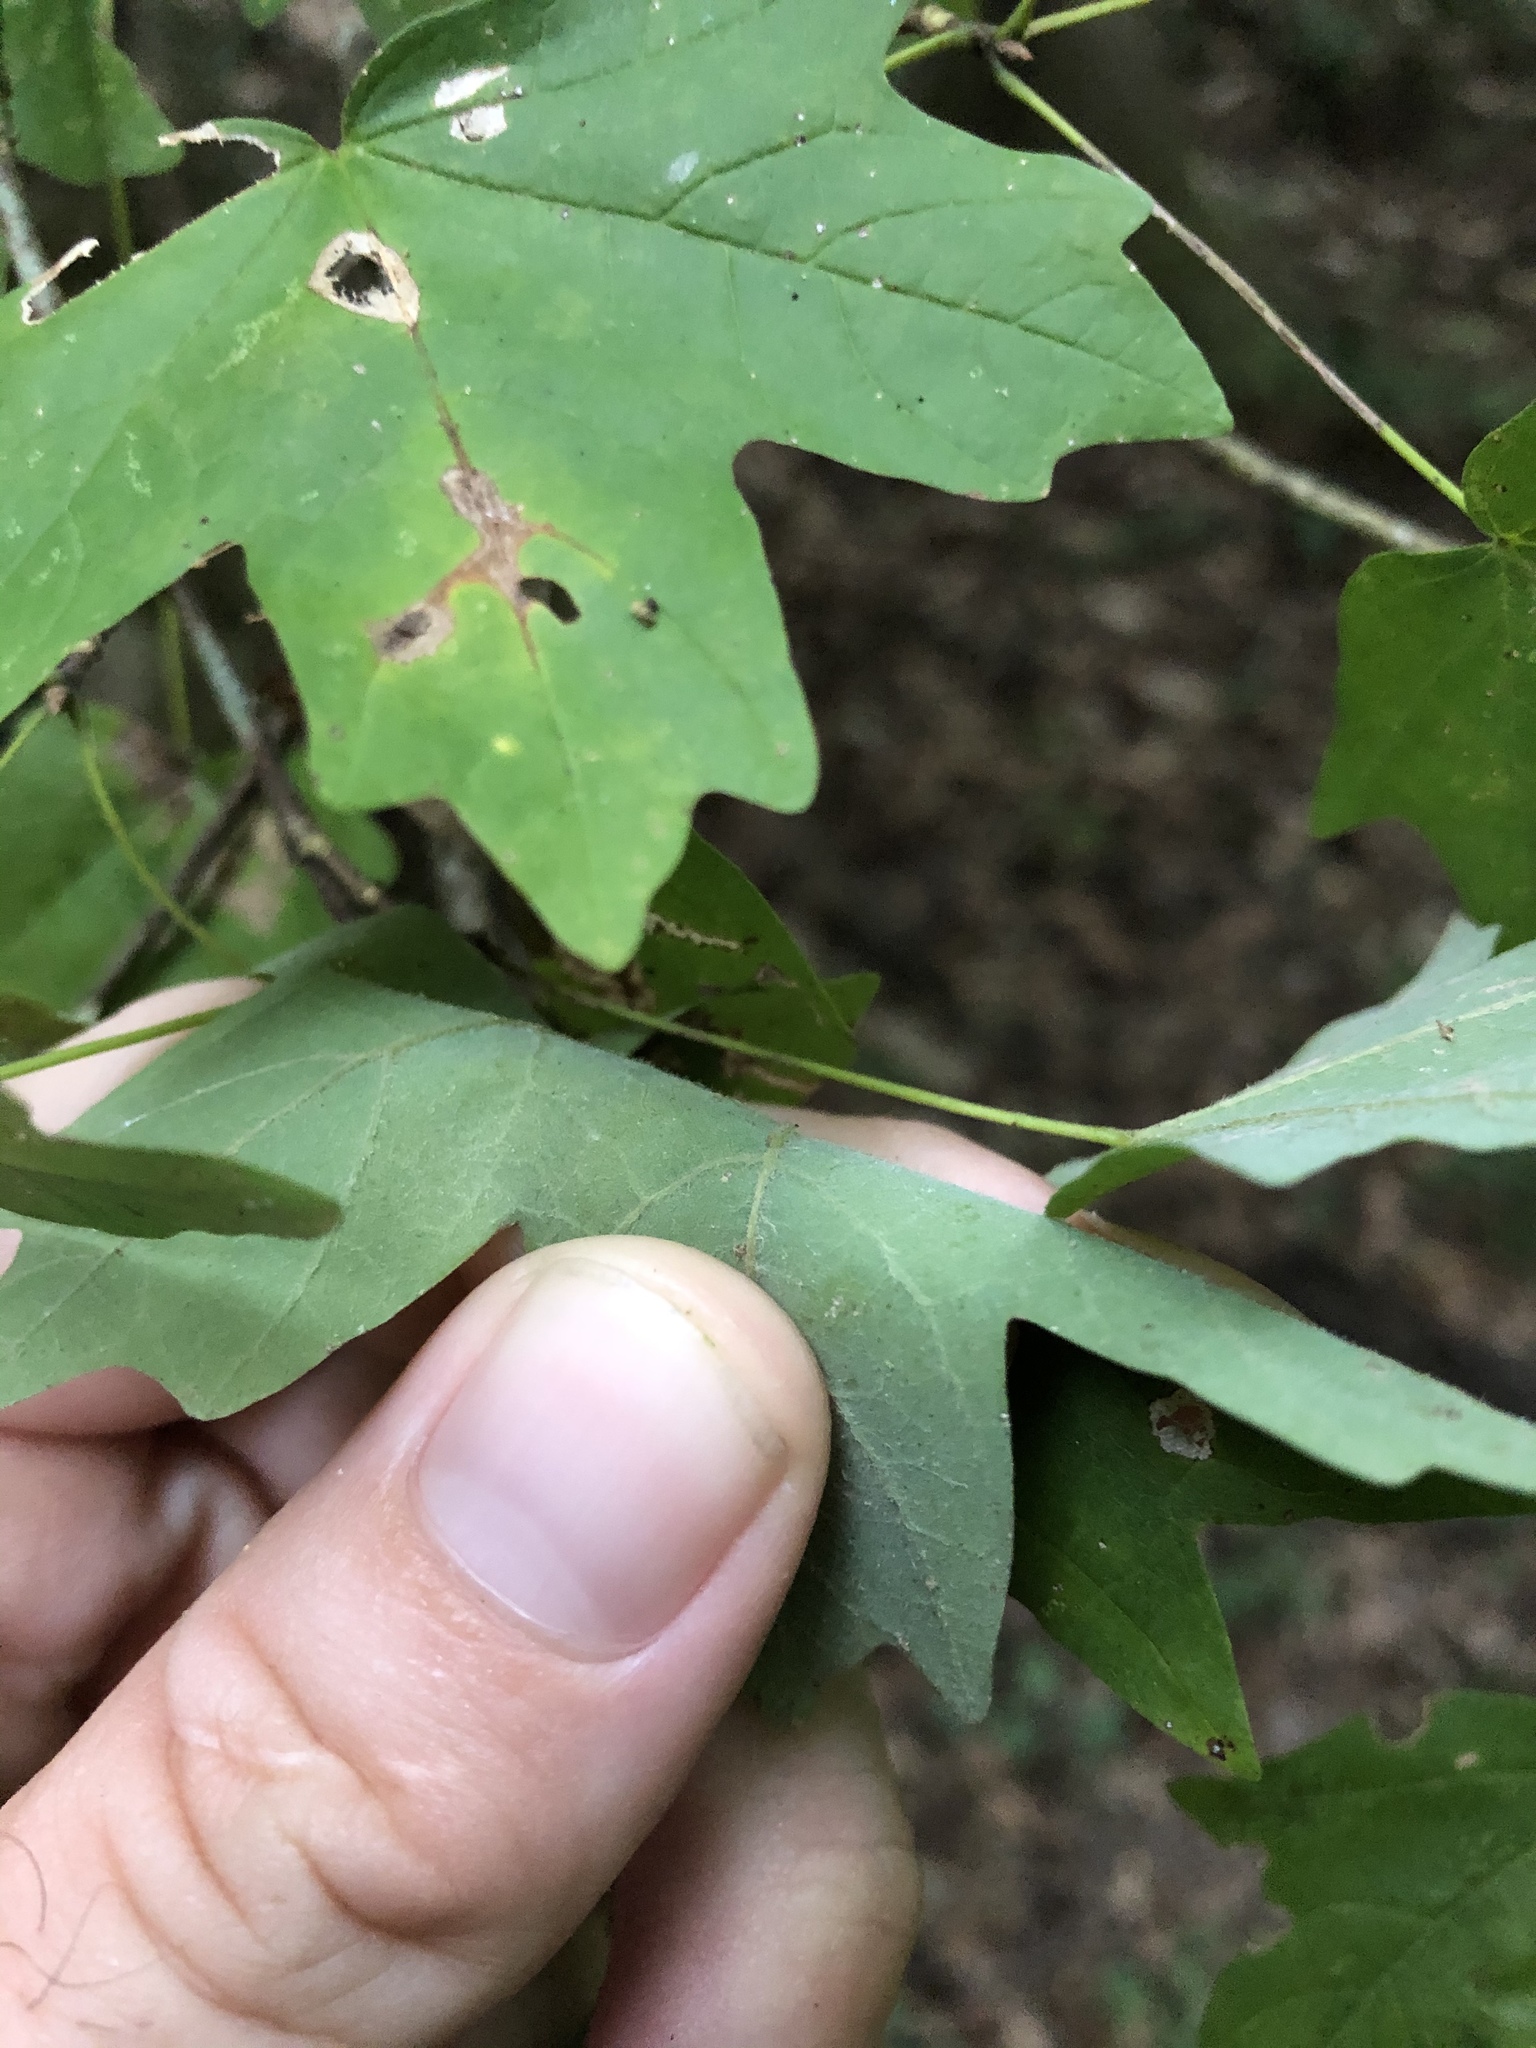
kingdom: Plantae
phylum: Tracheophyta
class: Magnoliopsida
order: Sapindales
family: Sapindaceae
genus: Acer
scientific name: Acer floridanum
